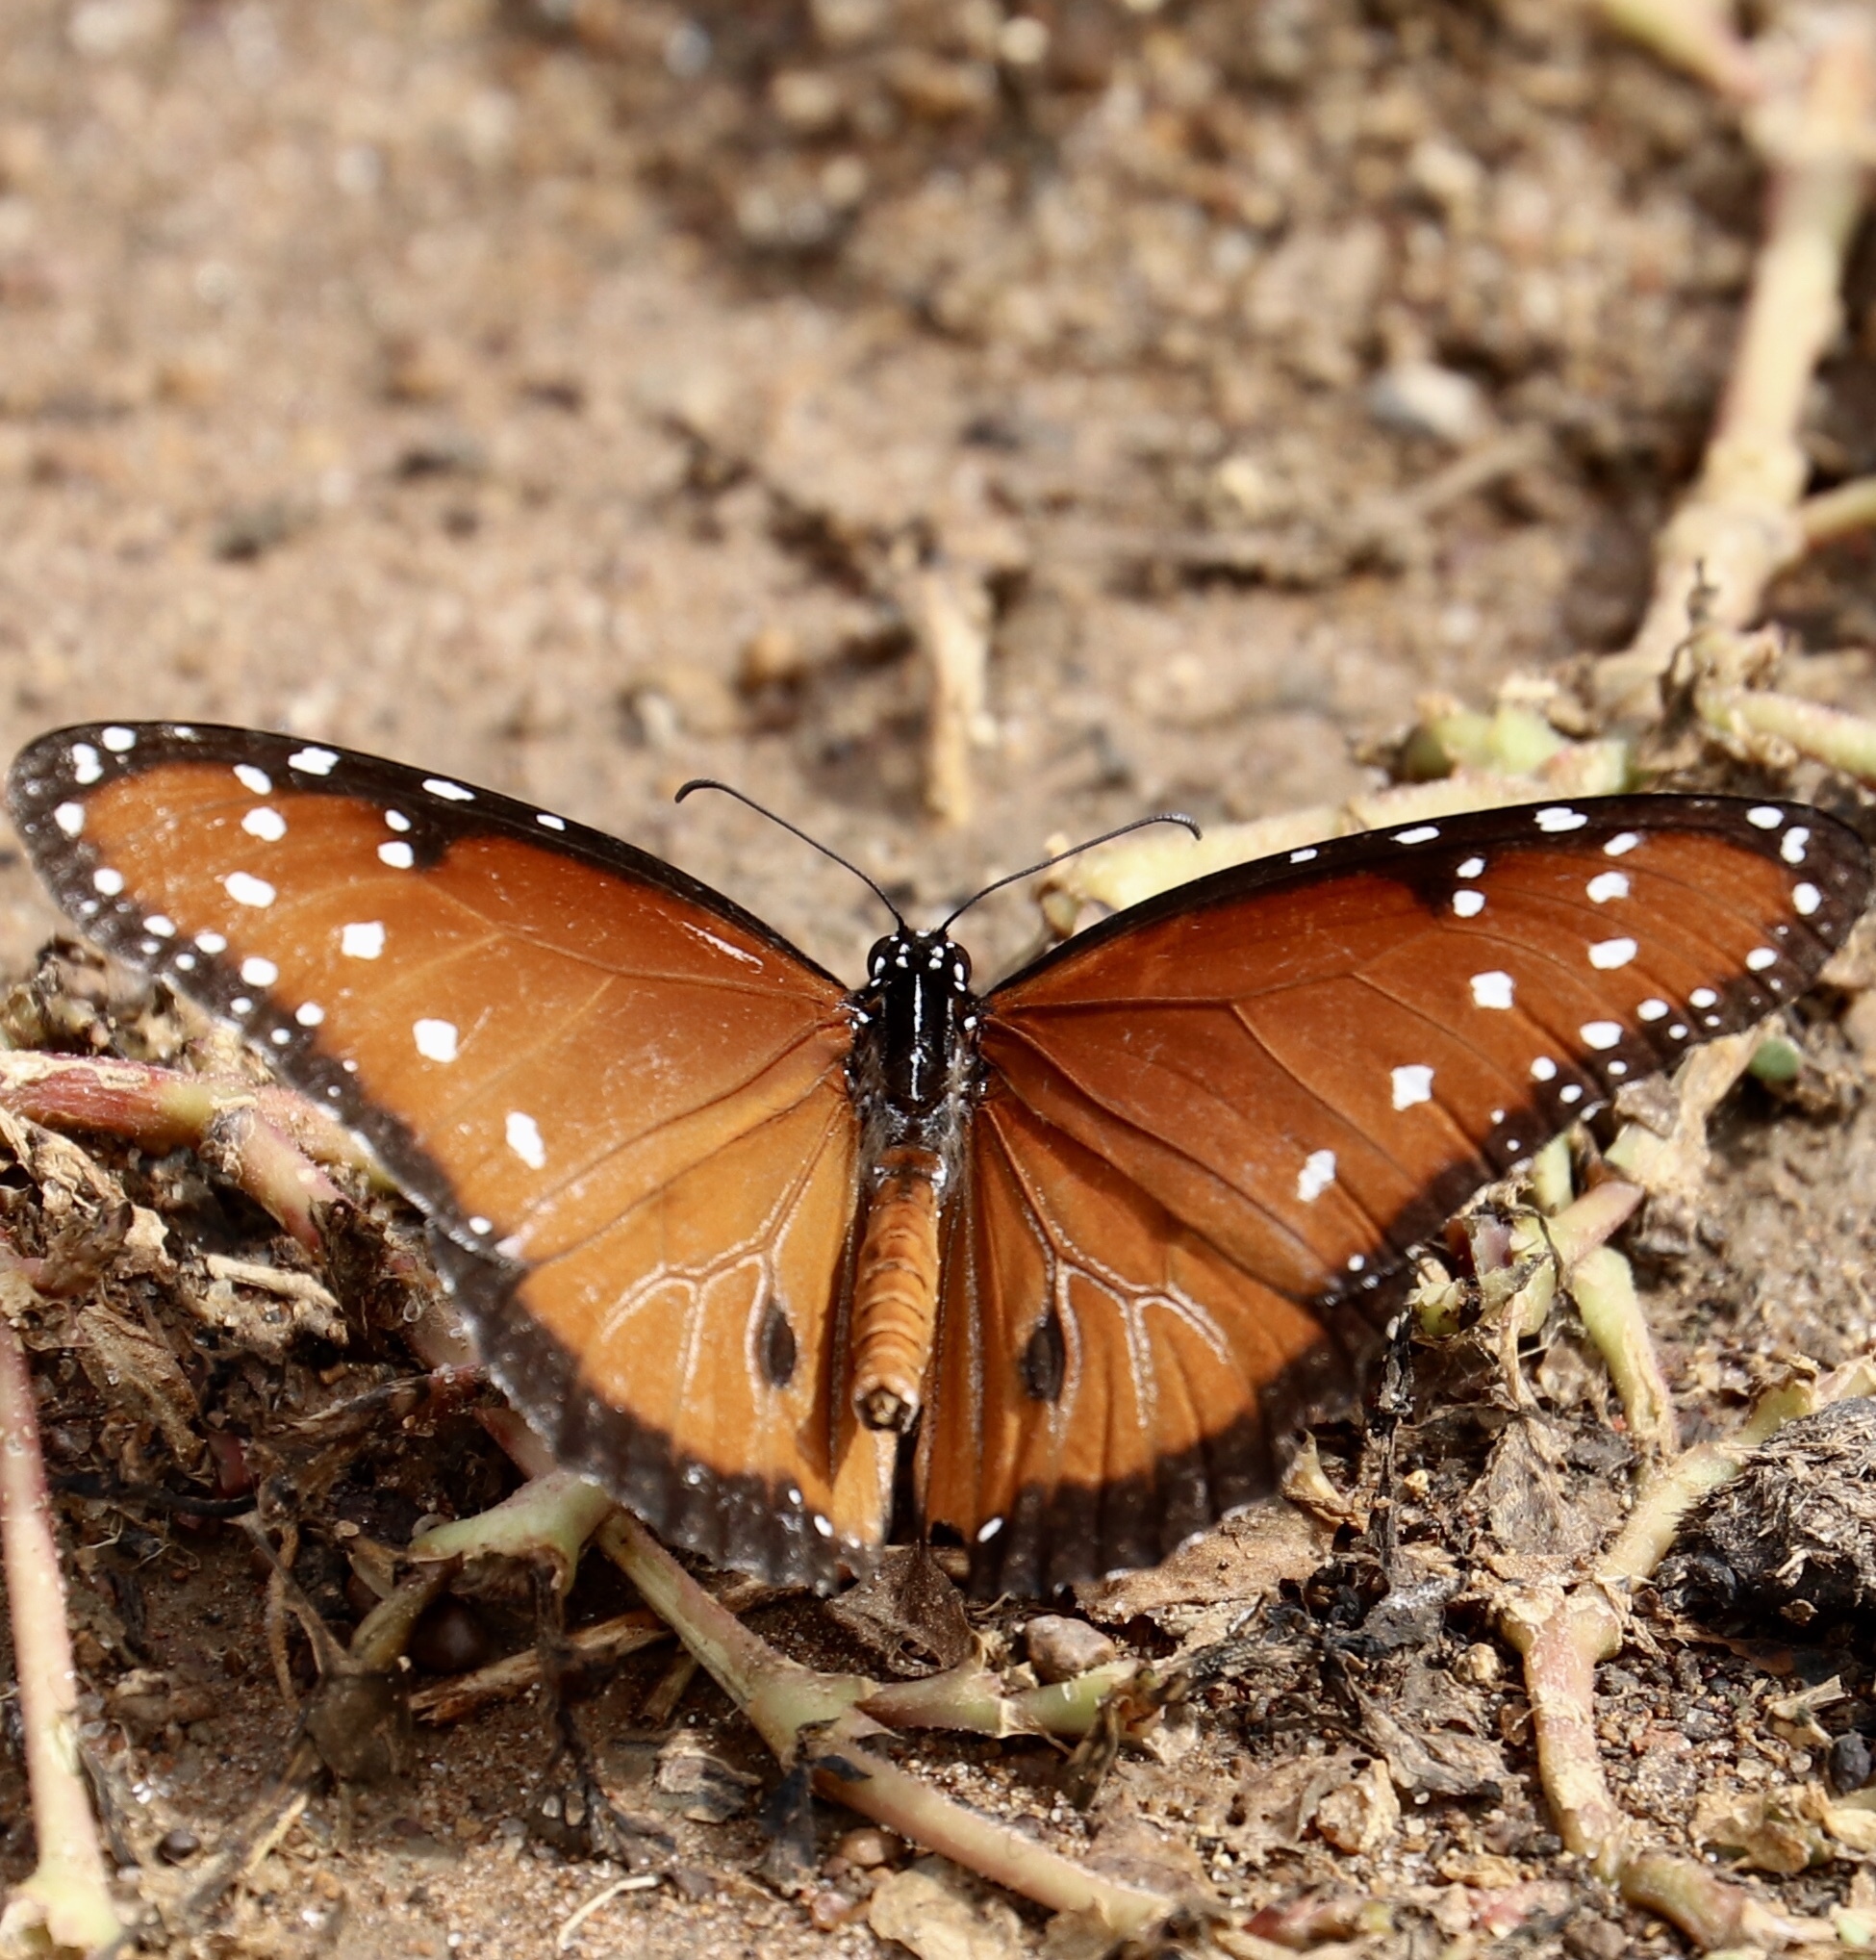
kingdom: Animalia
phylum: Arthropoda
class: Insecta
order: Lepidoptera
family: Nymphalidae
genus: Danaus
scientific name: Danaus gilippus
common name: Queen
